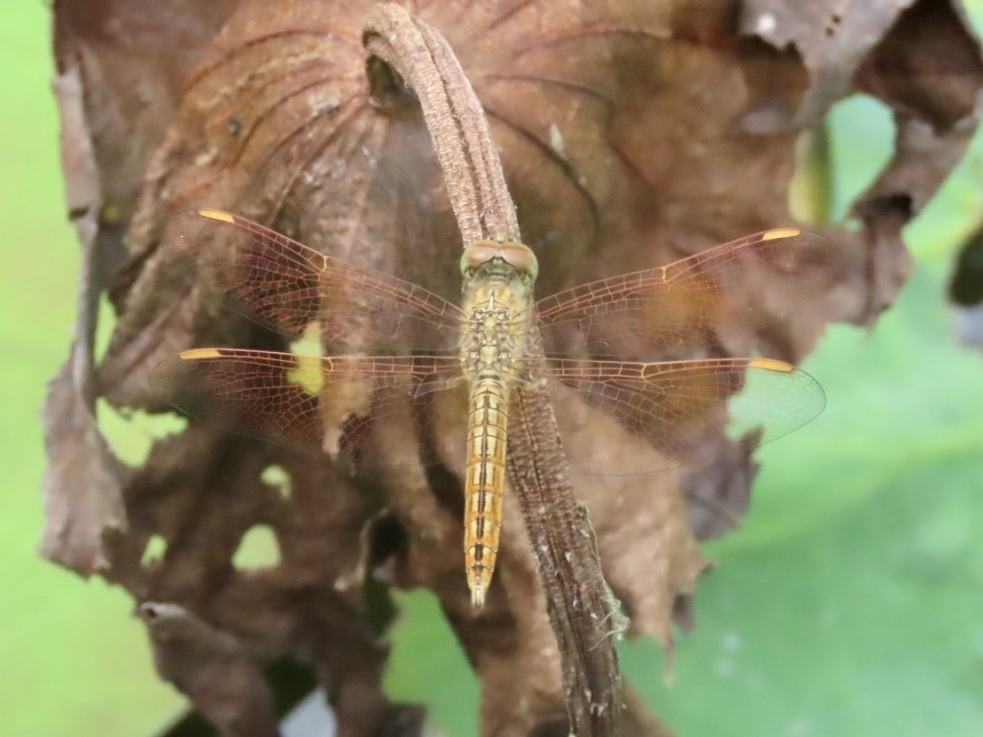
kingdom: Animalia
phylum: Arthropoda
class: Insecta
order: Odonata
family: Libellulidae
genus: Brachythemis
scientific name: Brachythemis contaminata
